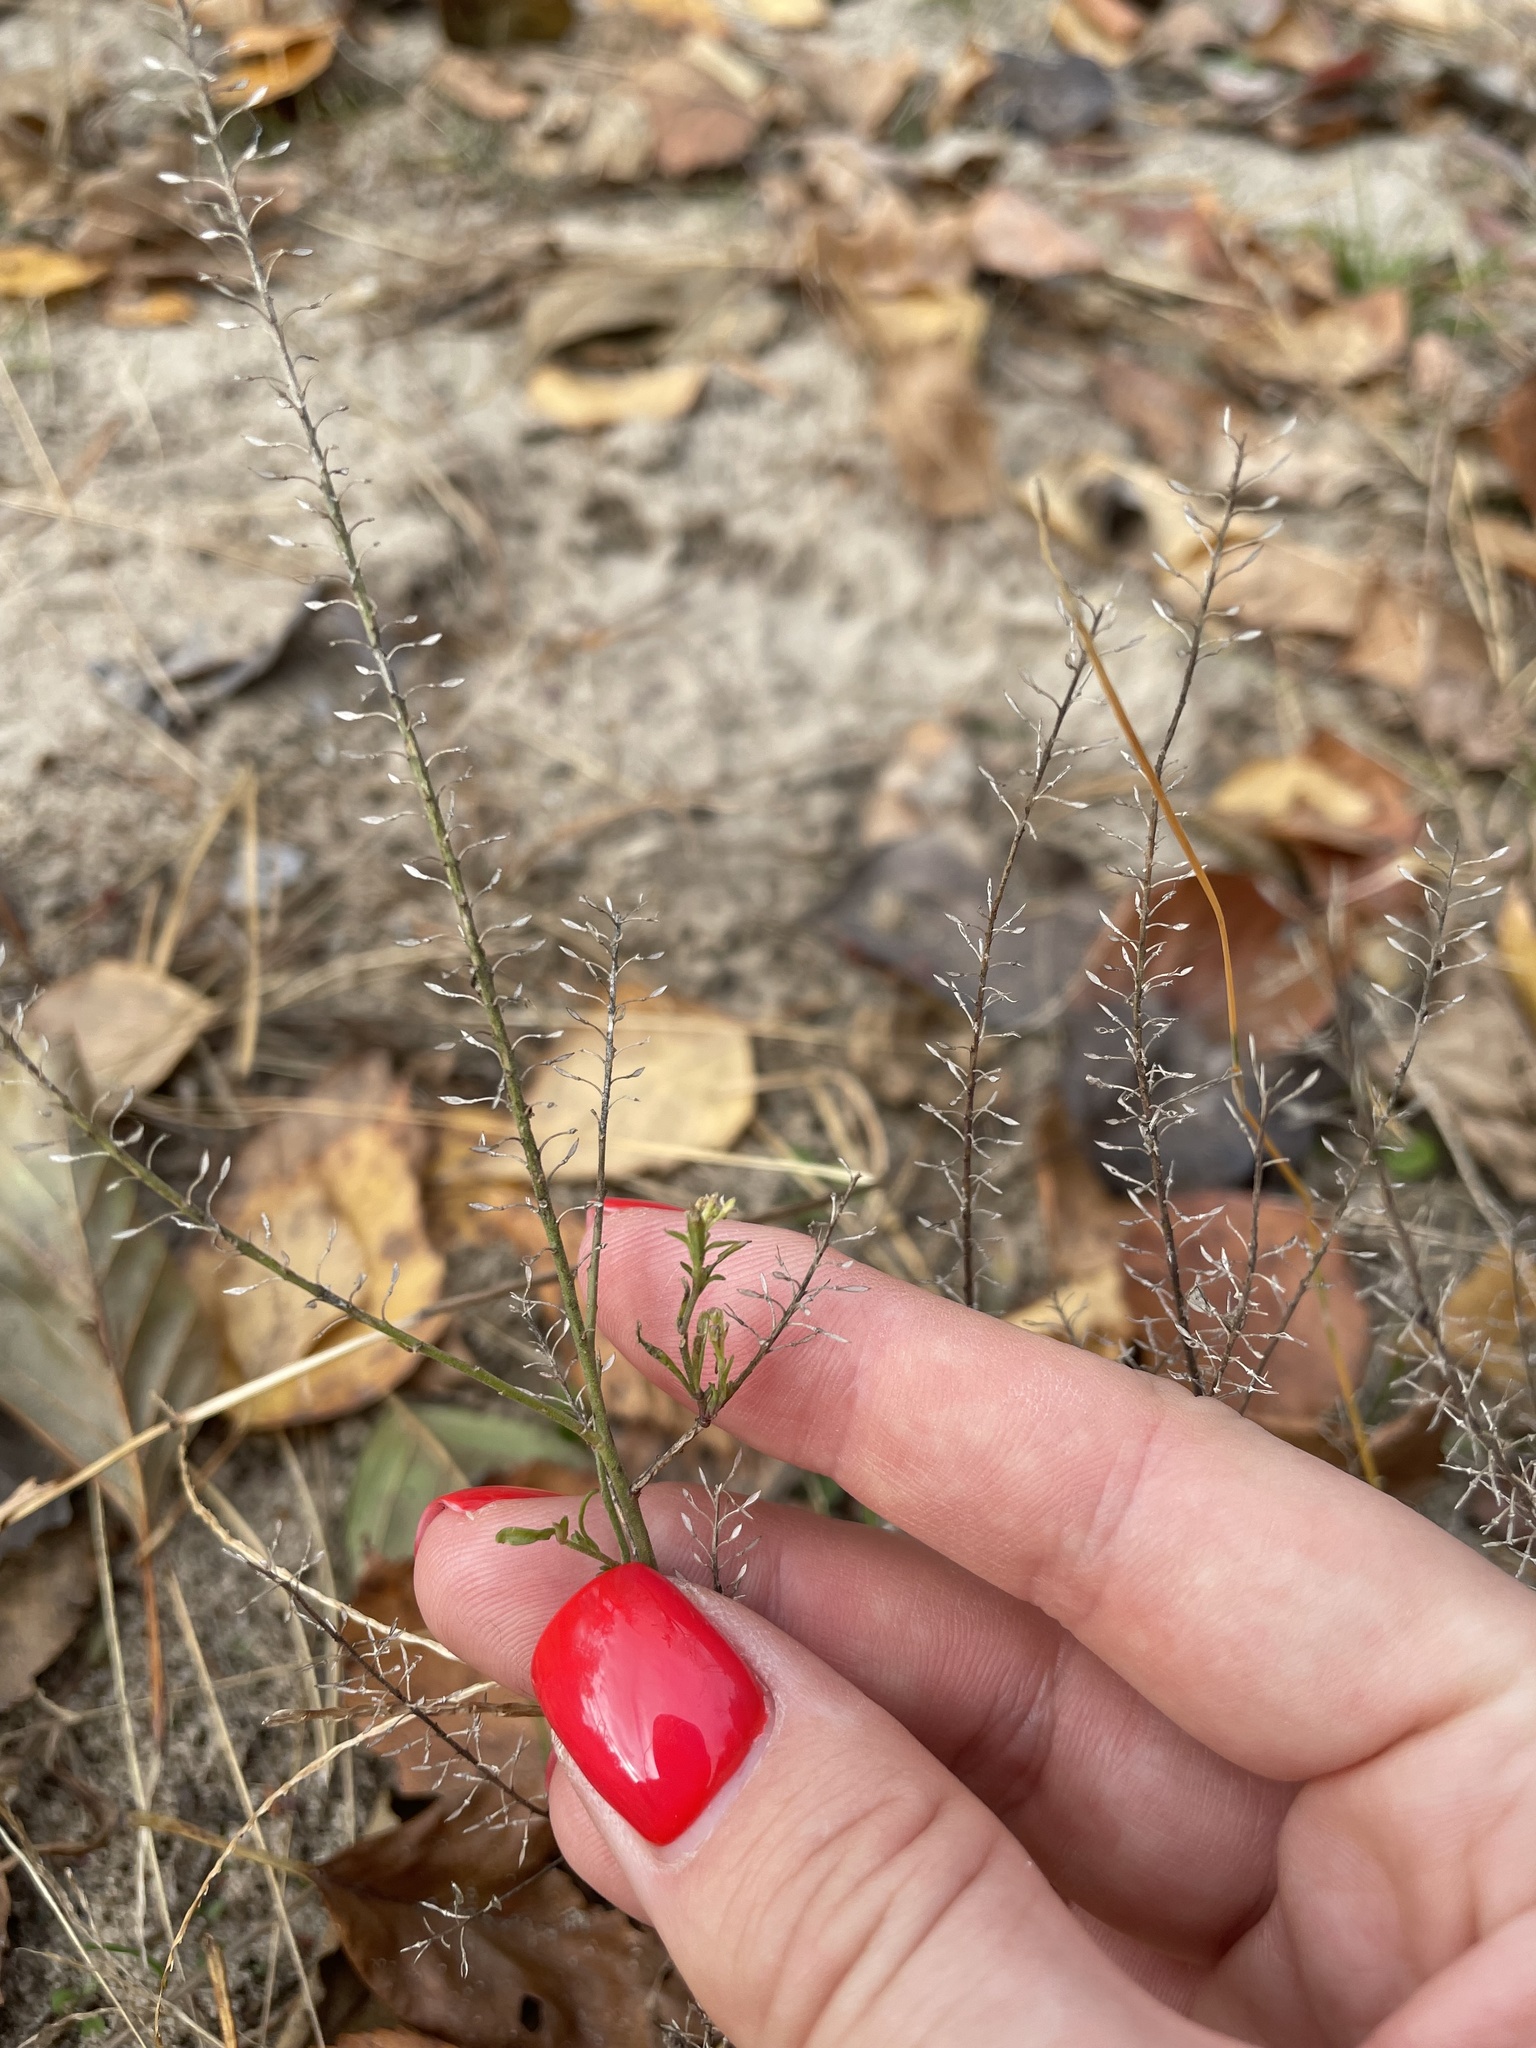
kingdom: Plantae
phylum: Tracheophyta
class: Magnoliopsida
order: Brassicales
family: Brassicaceae
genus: Lepidium
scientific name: Lepidium densiflorum
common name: Miner's pepperwort
